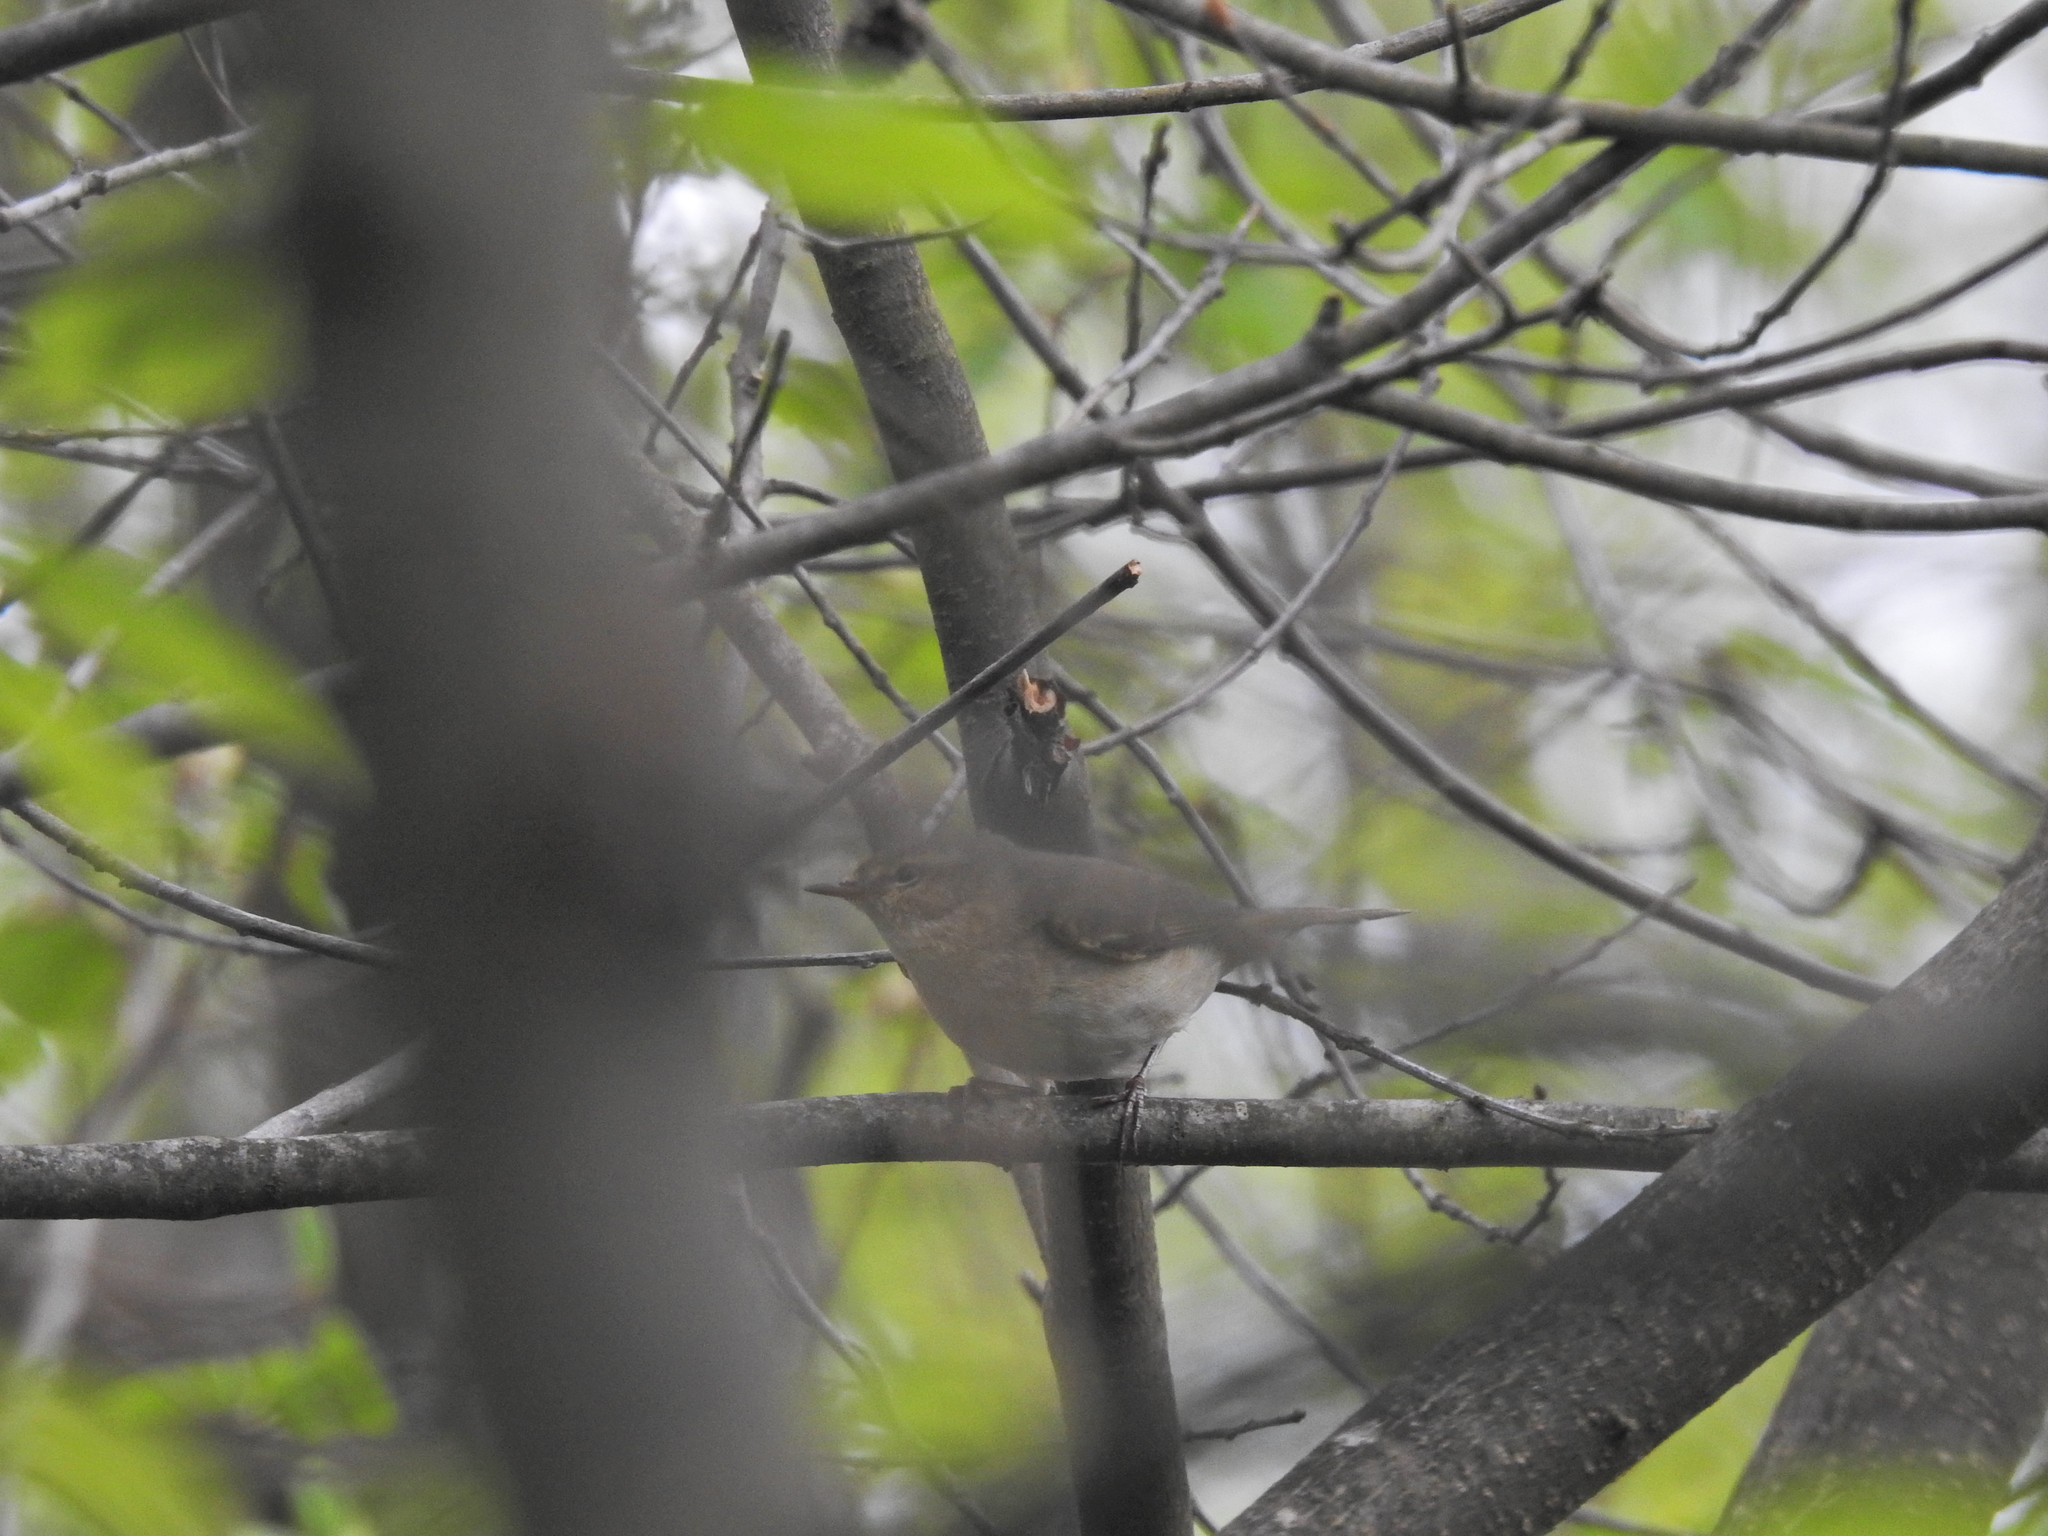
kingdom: Animalia
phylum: Chordata
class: Aves
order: Passeriformes
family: Phylloscopidae
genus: Phylloscopus
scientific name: Phylloscopus collybita
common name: Common chiffchaff
